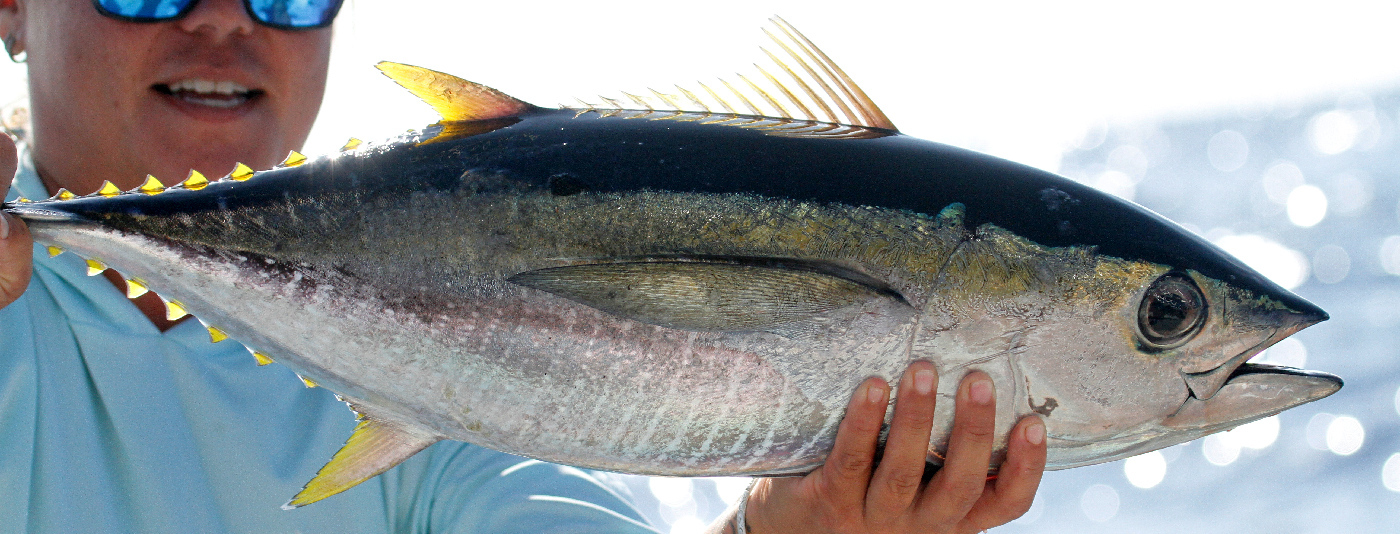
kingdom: Animalia
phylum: Chordata
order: Perciformes
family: Scombridae
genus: Thunnus
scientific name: Thunnus albacares
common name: Yellowfin tuna
